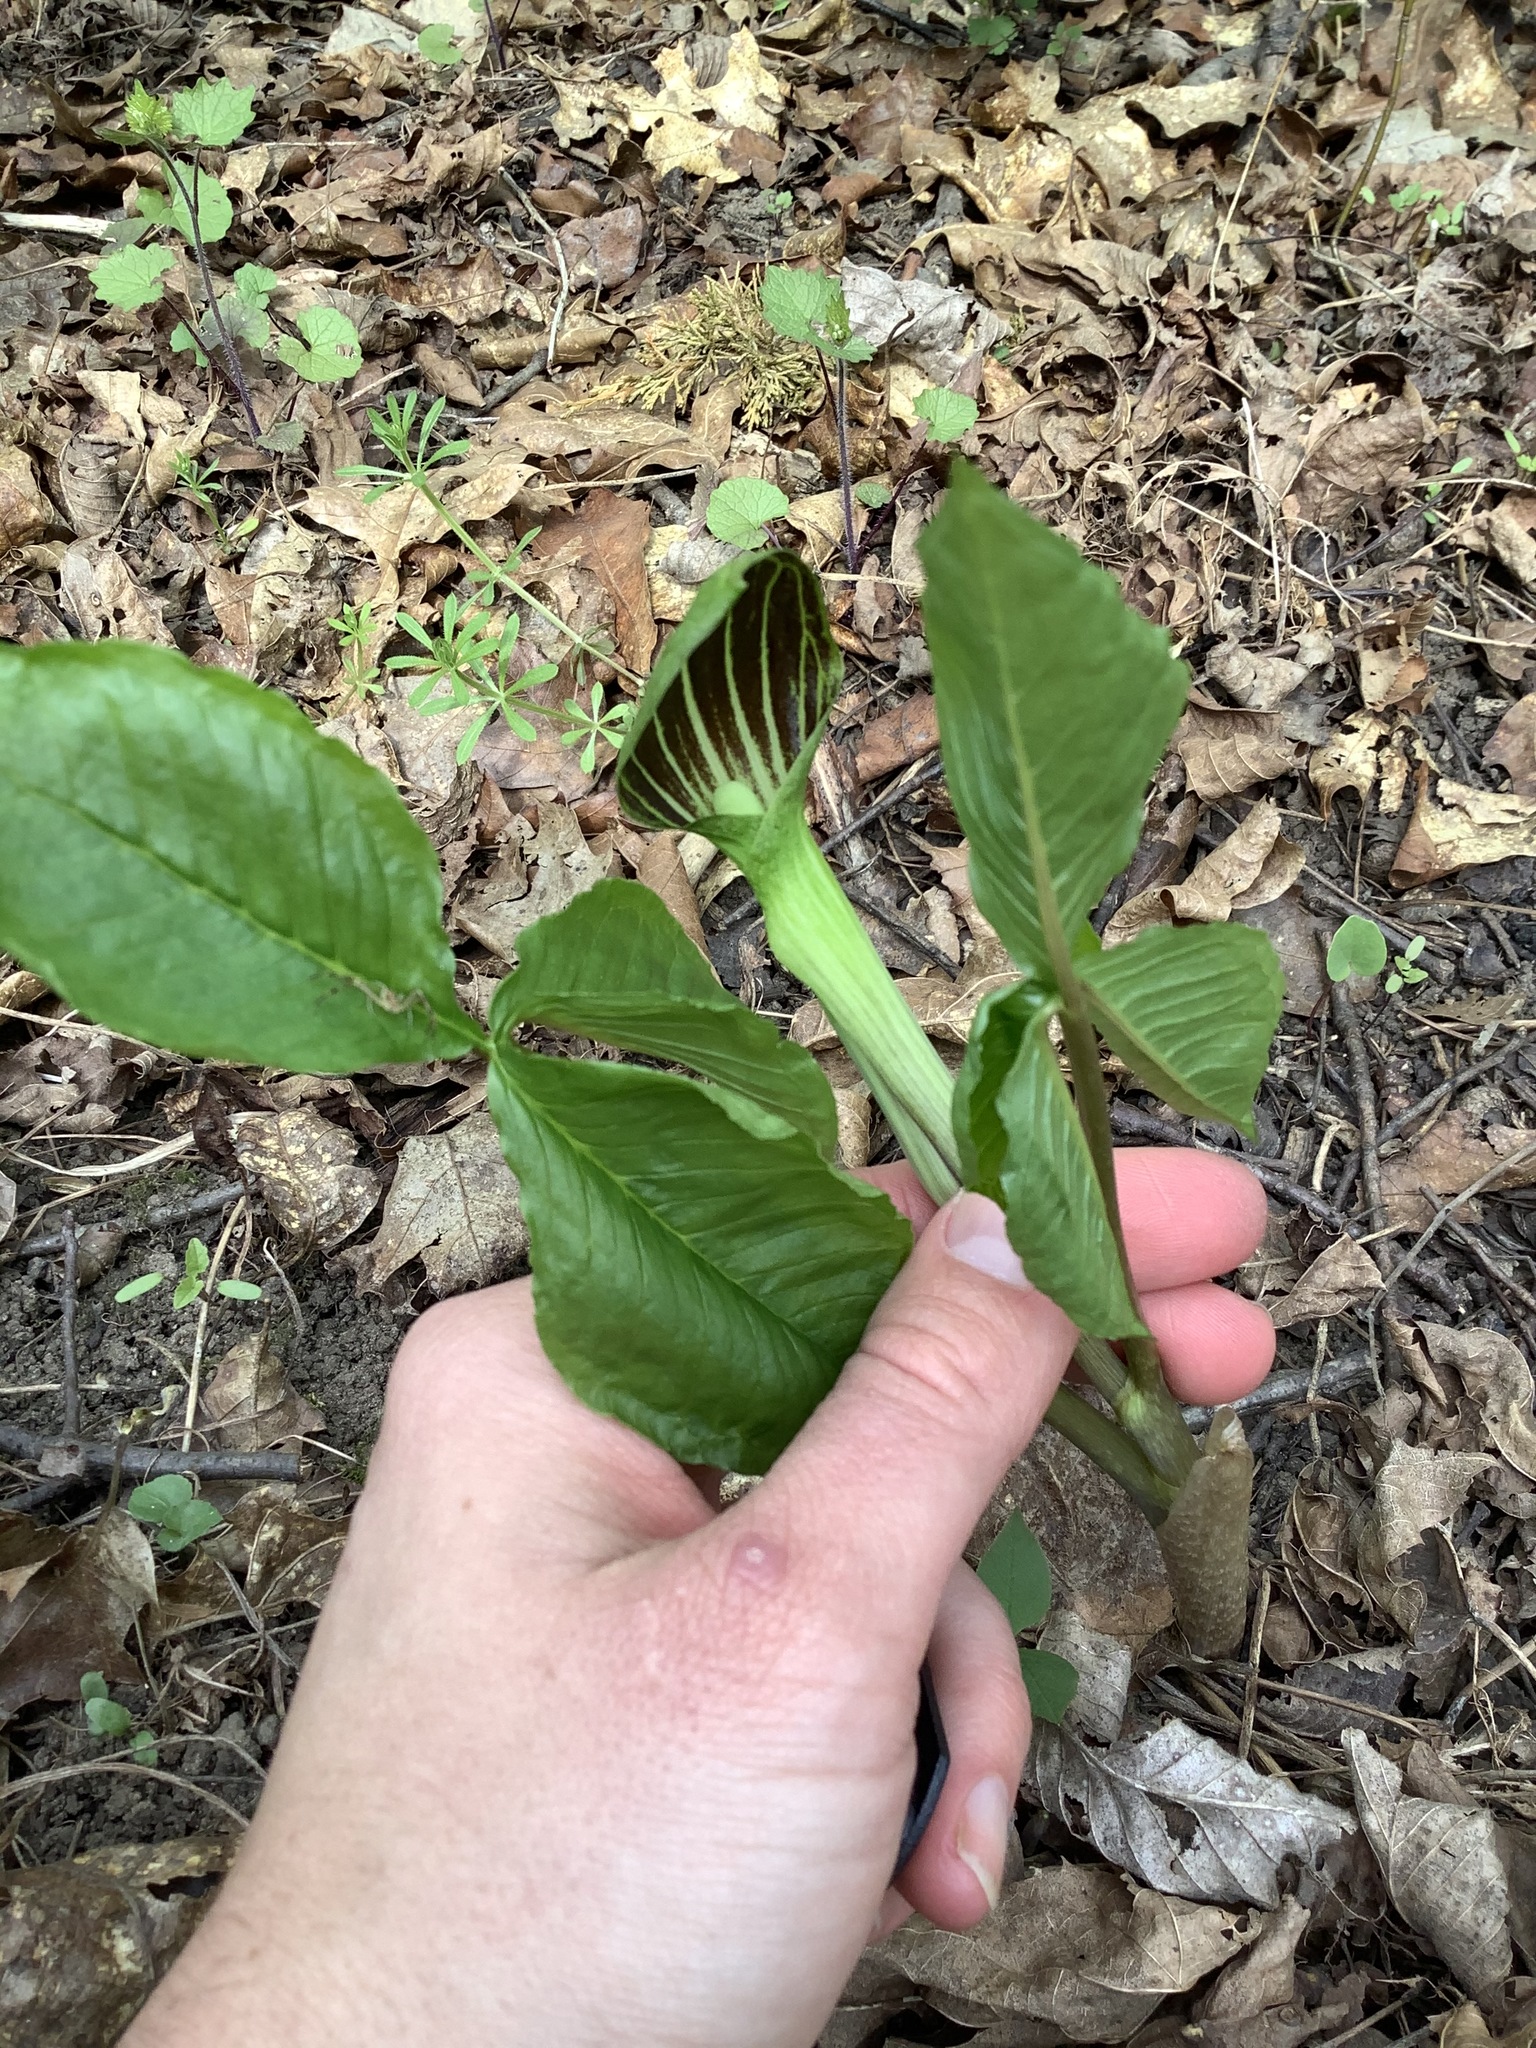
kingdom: Plantae
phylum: Tracheophyta
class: Liliopsida
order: Alismatales
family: Araceae
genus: Arisaema
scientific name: Arisaema triphyllum
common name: Jack-in-the-pulpit
